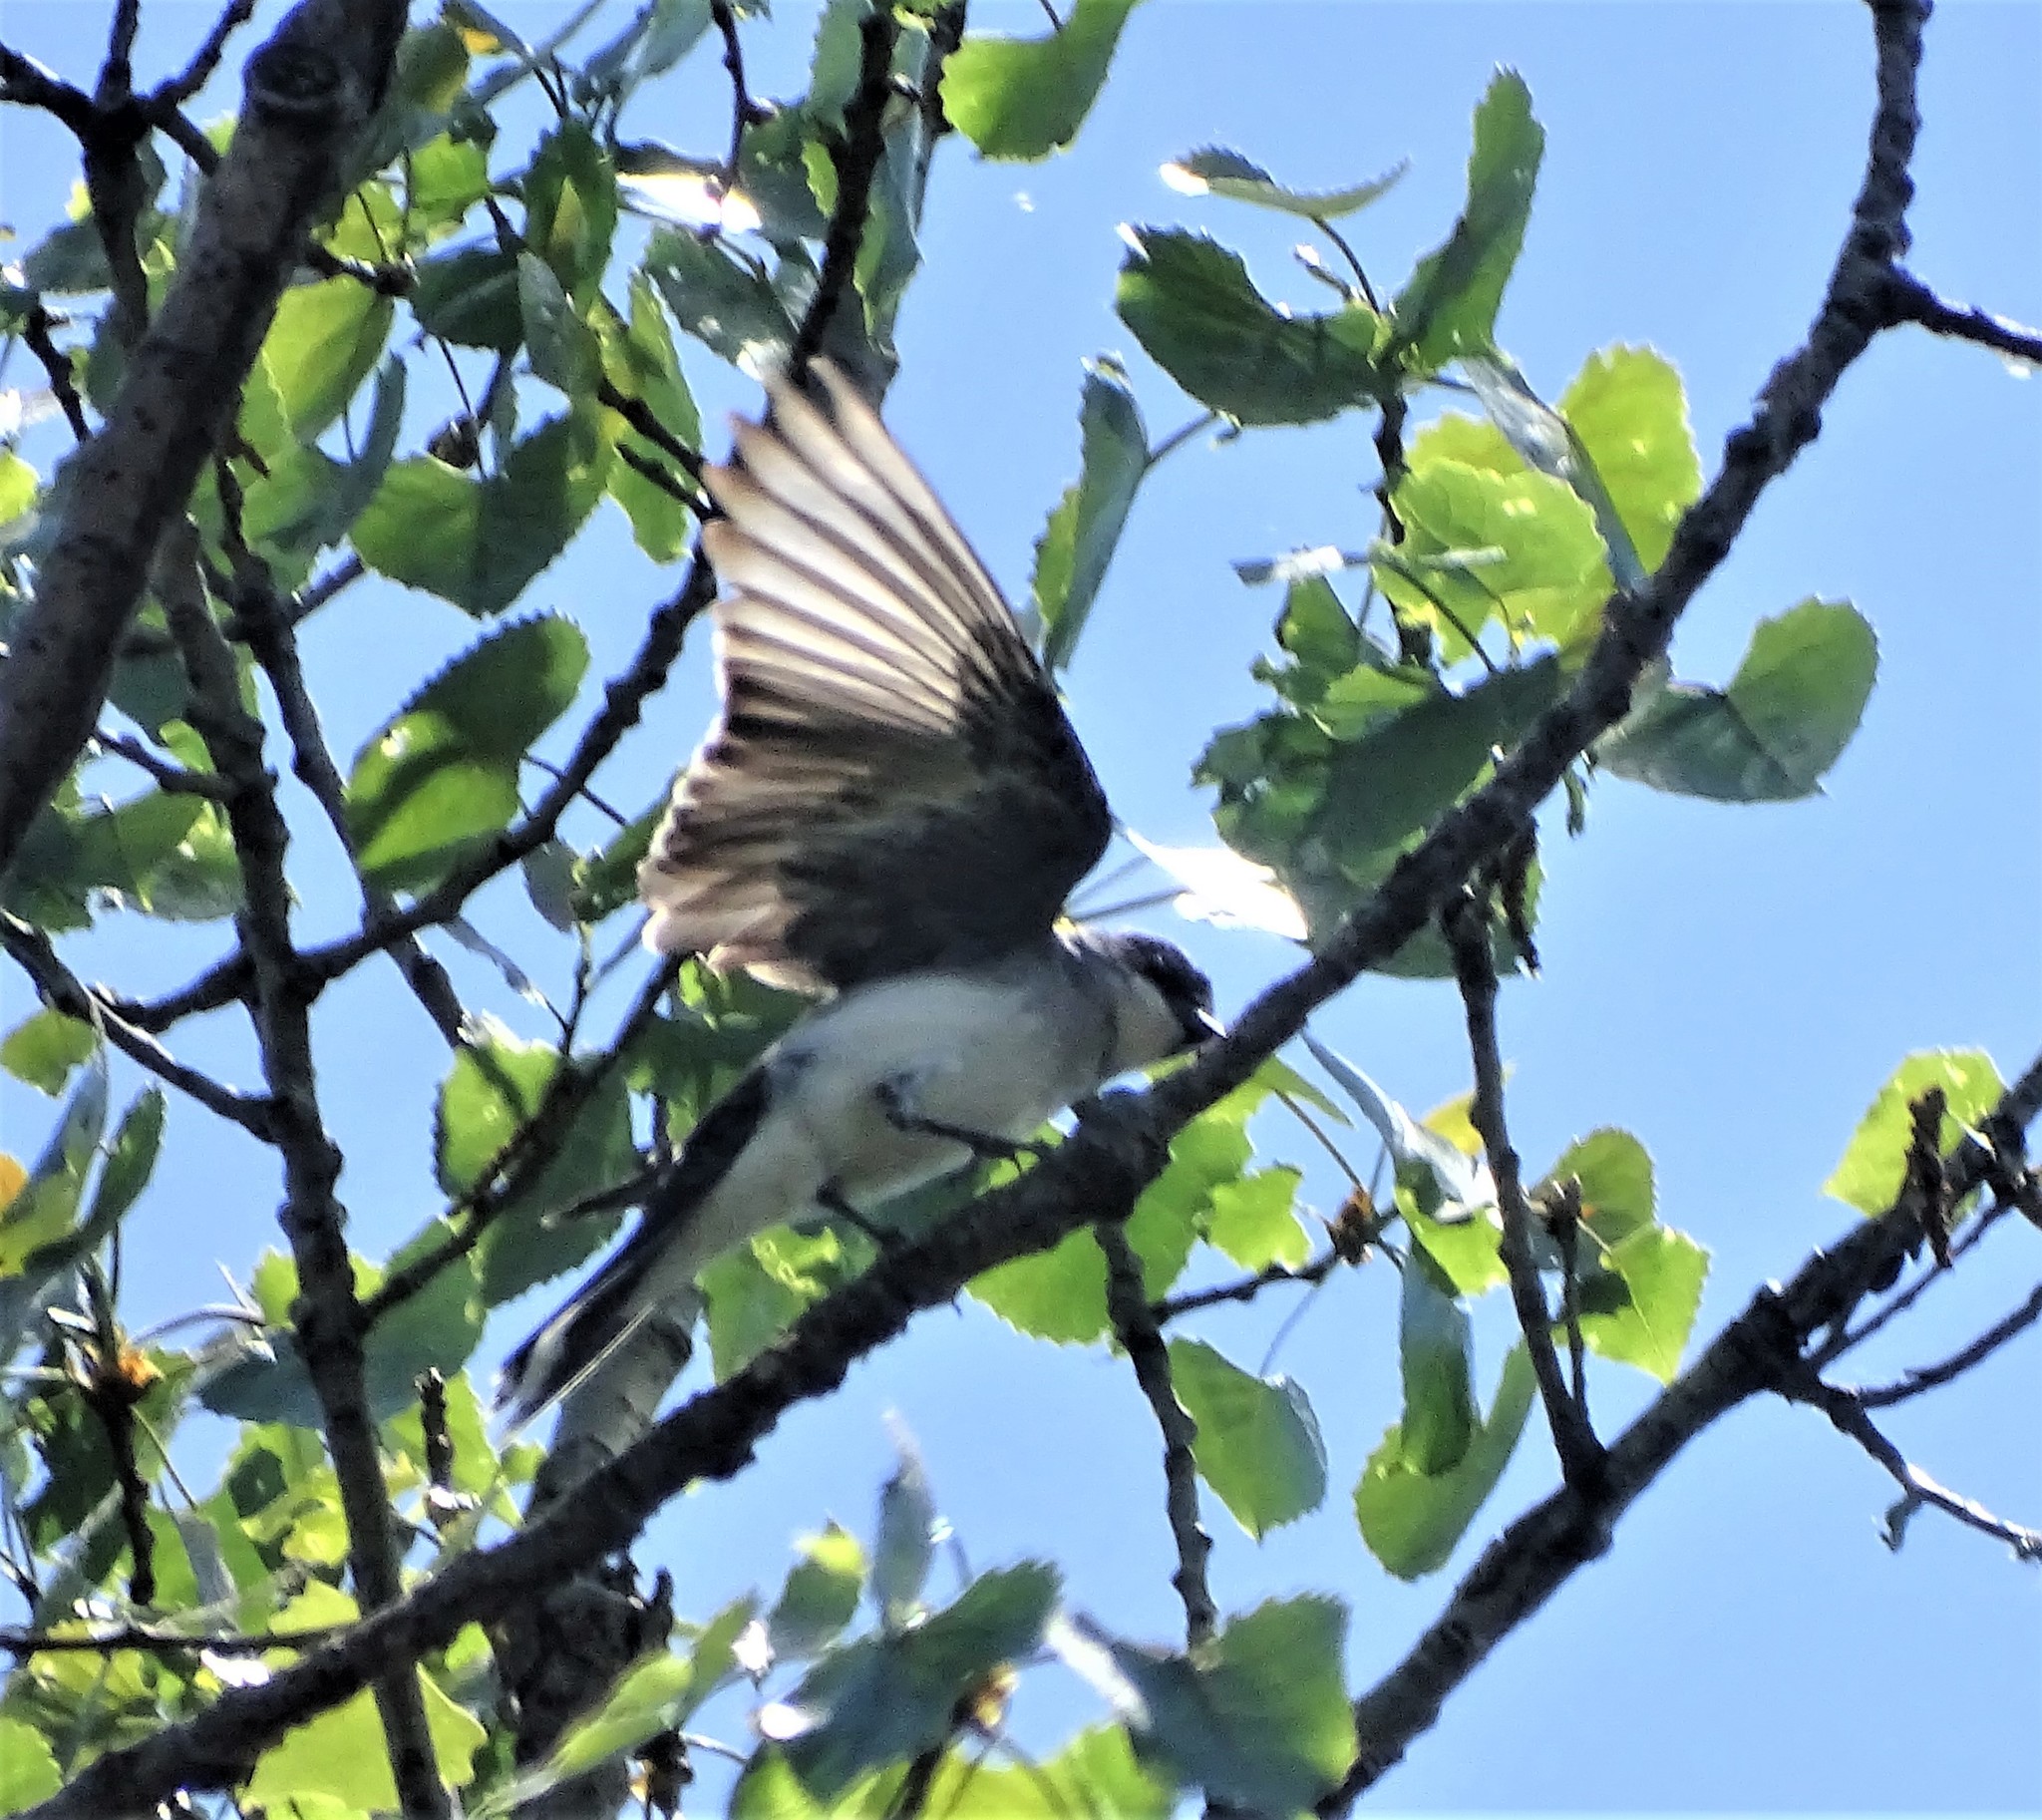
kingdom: Animalia
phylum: Chordata
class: Aves
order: Passeriformes
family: Tyrannidae
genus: Tyrannus
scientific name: Tyrannus tyrannus
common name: Eastern kingbird
